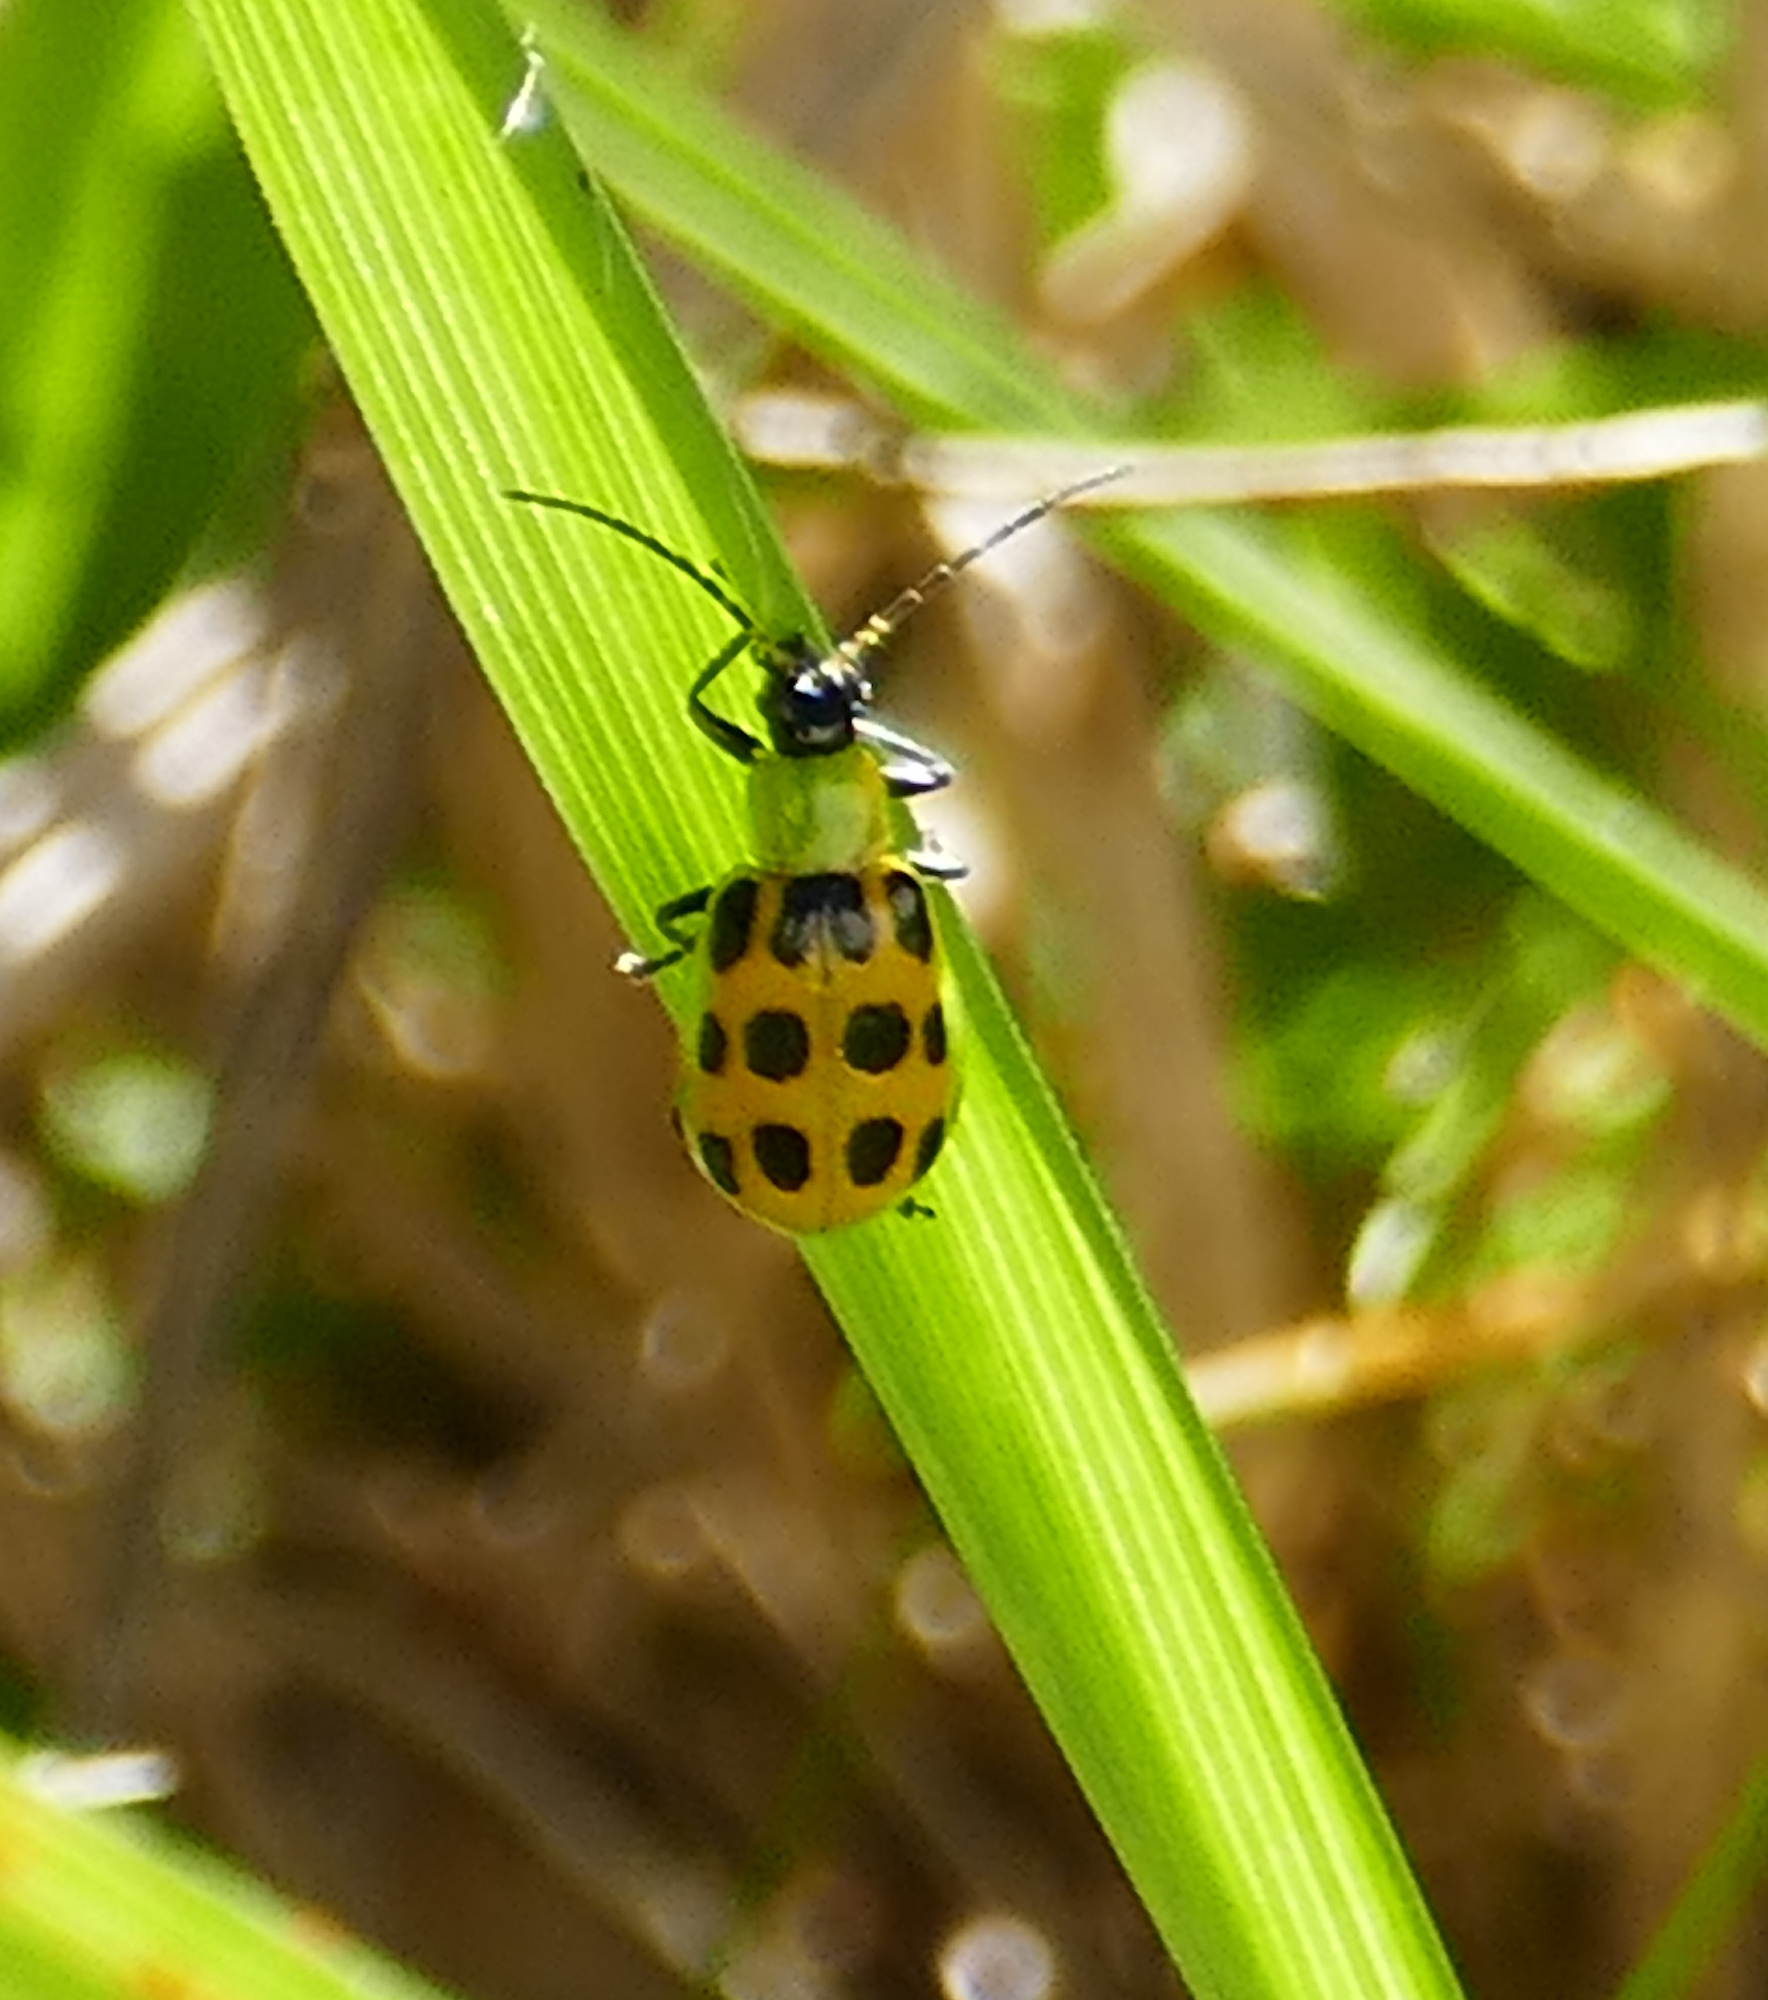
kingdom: Animalia
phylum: Arthropoda
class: Insecta
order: Coleoptera
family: Chrysomelidae
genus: Diabrotica
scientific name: Diabrotica undecimpunctata
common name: Spotted cucumber beetle
